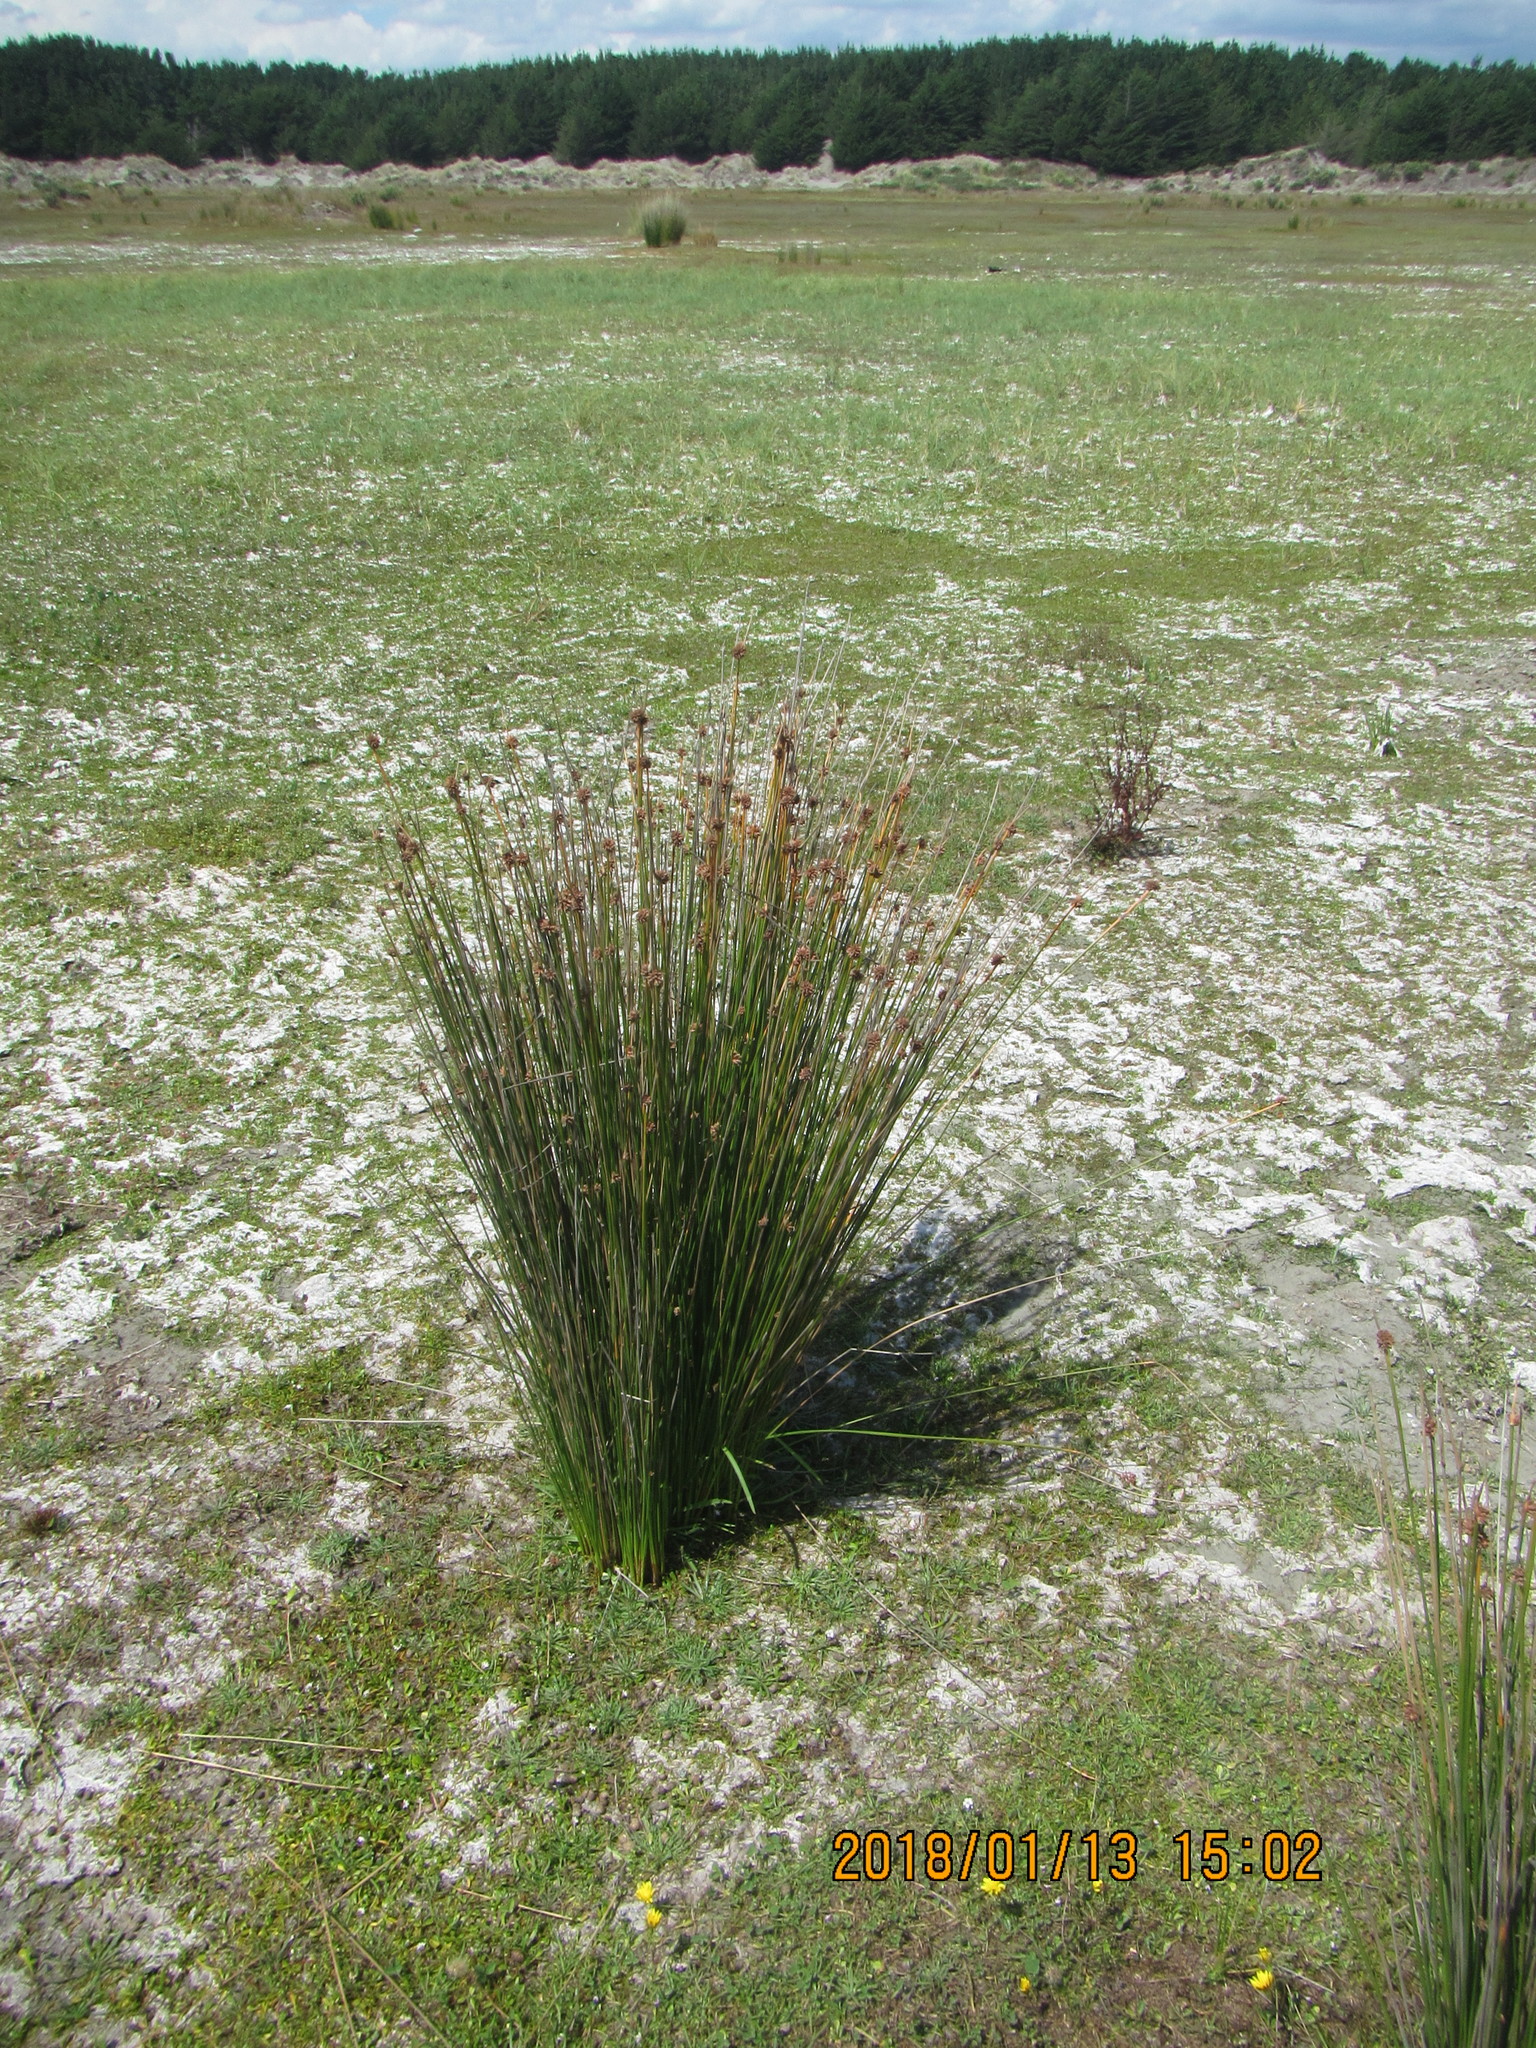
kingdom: Plantae
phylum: Tracheophyta
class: Liliopsida
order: Poales
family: Cyperaceae
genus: Ficinia
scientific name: Ficinia nodosa
